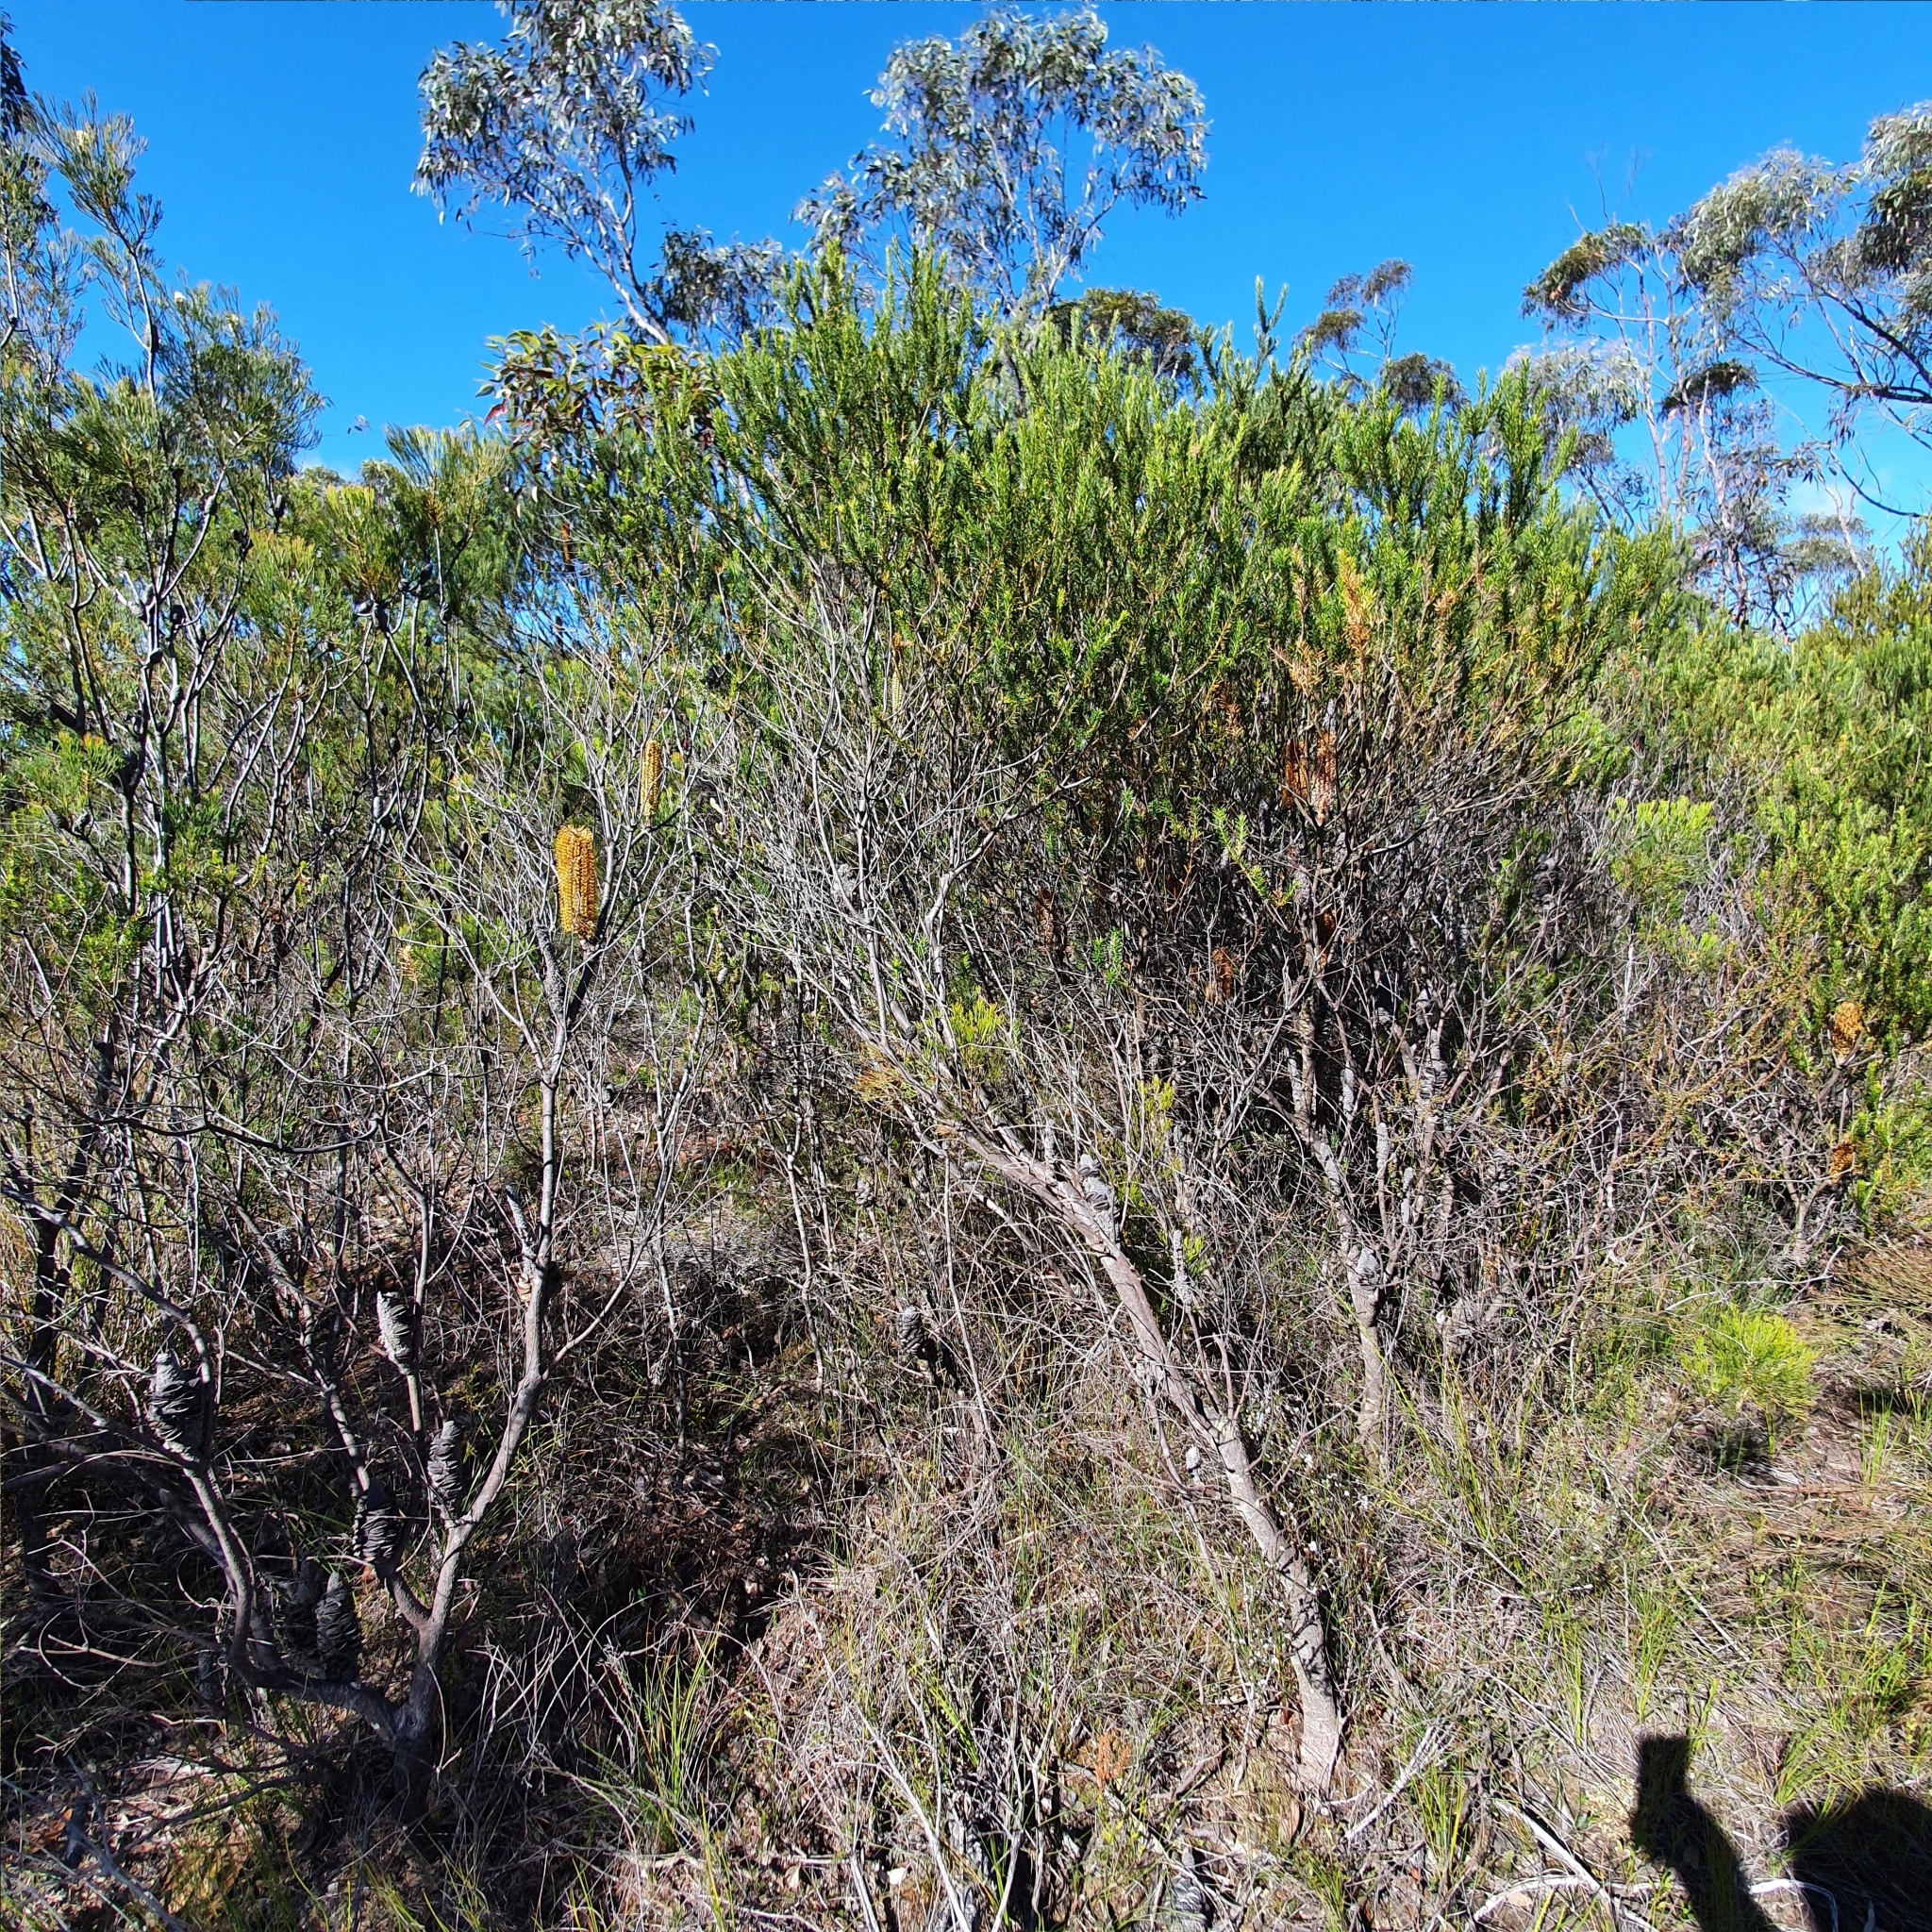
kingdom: Plantae
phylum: Tracheophyta
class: Magnoliopsida
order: Proteales
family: Proteaceae
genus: Banksia
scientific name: Banksia ericifolia
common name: Heath-leaf banksia
